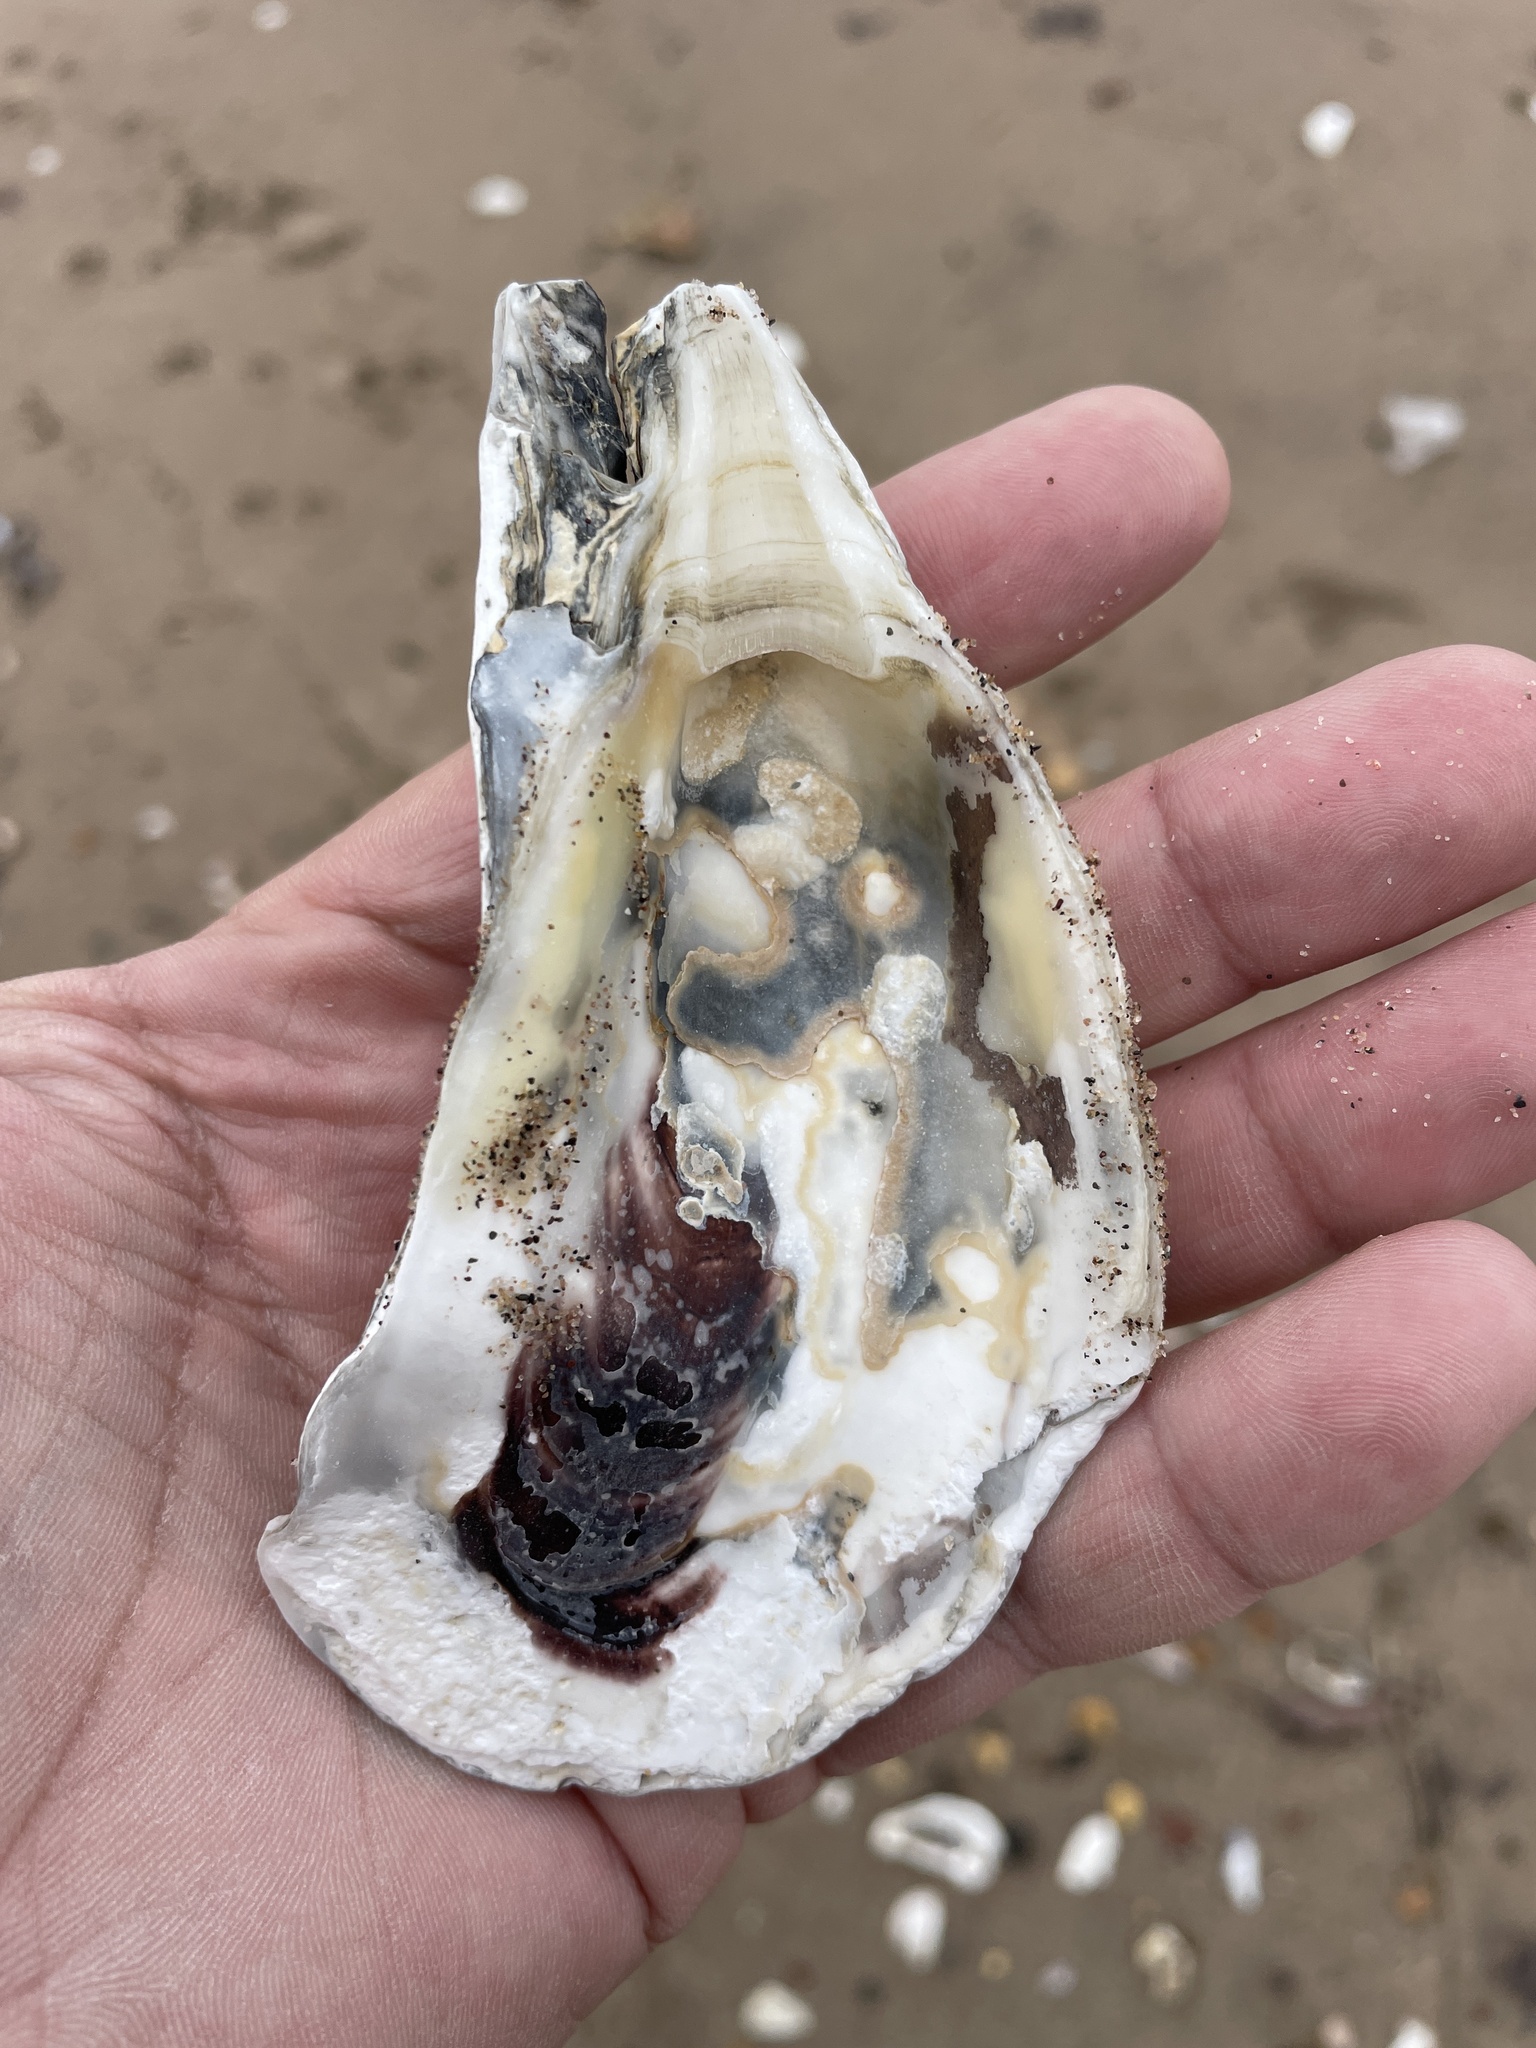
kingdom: Animalia
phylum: Mollusca
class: Bivalvia
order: Ostreida
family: Ostreidae
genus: Crassostrea
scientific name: Crassostrea virginica
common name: American oyster
